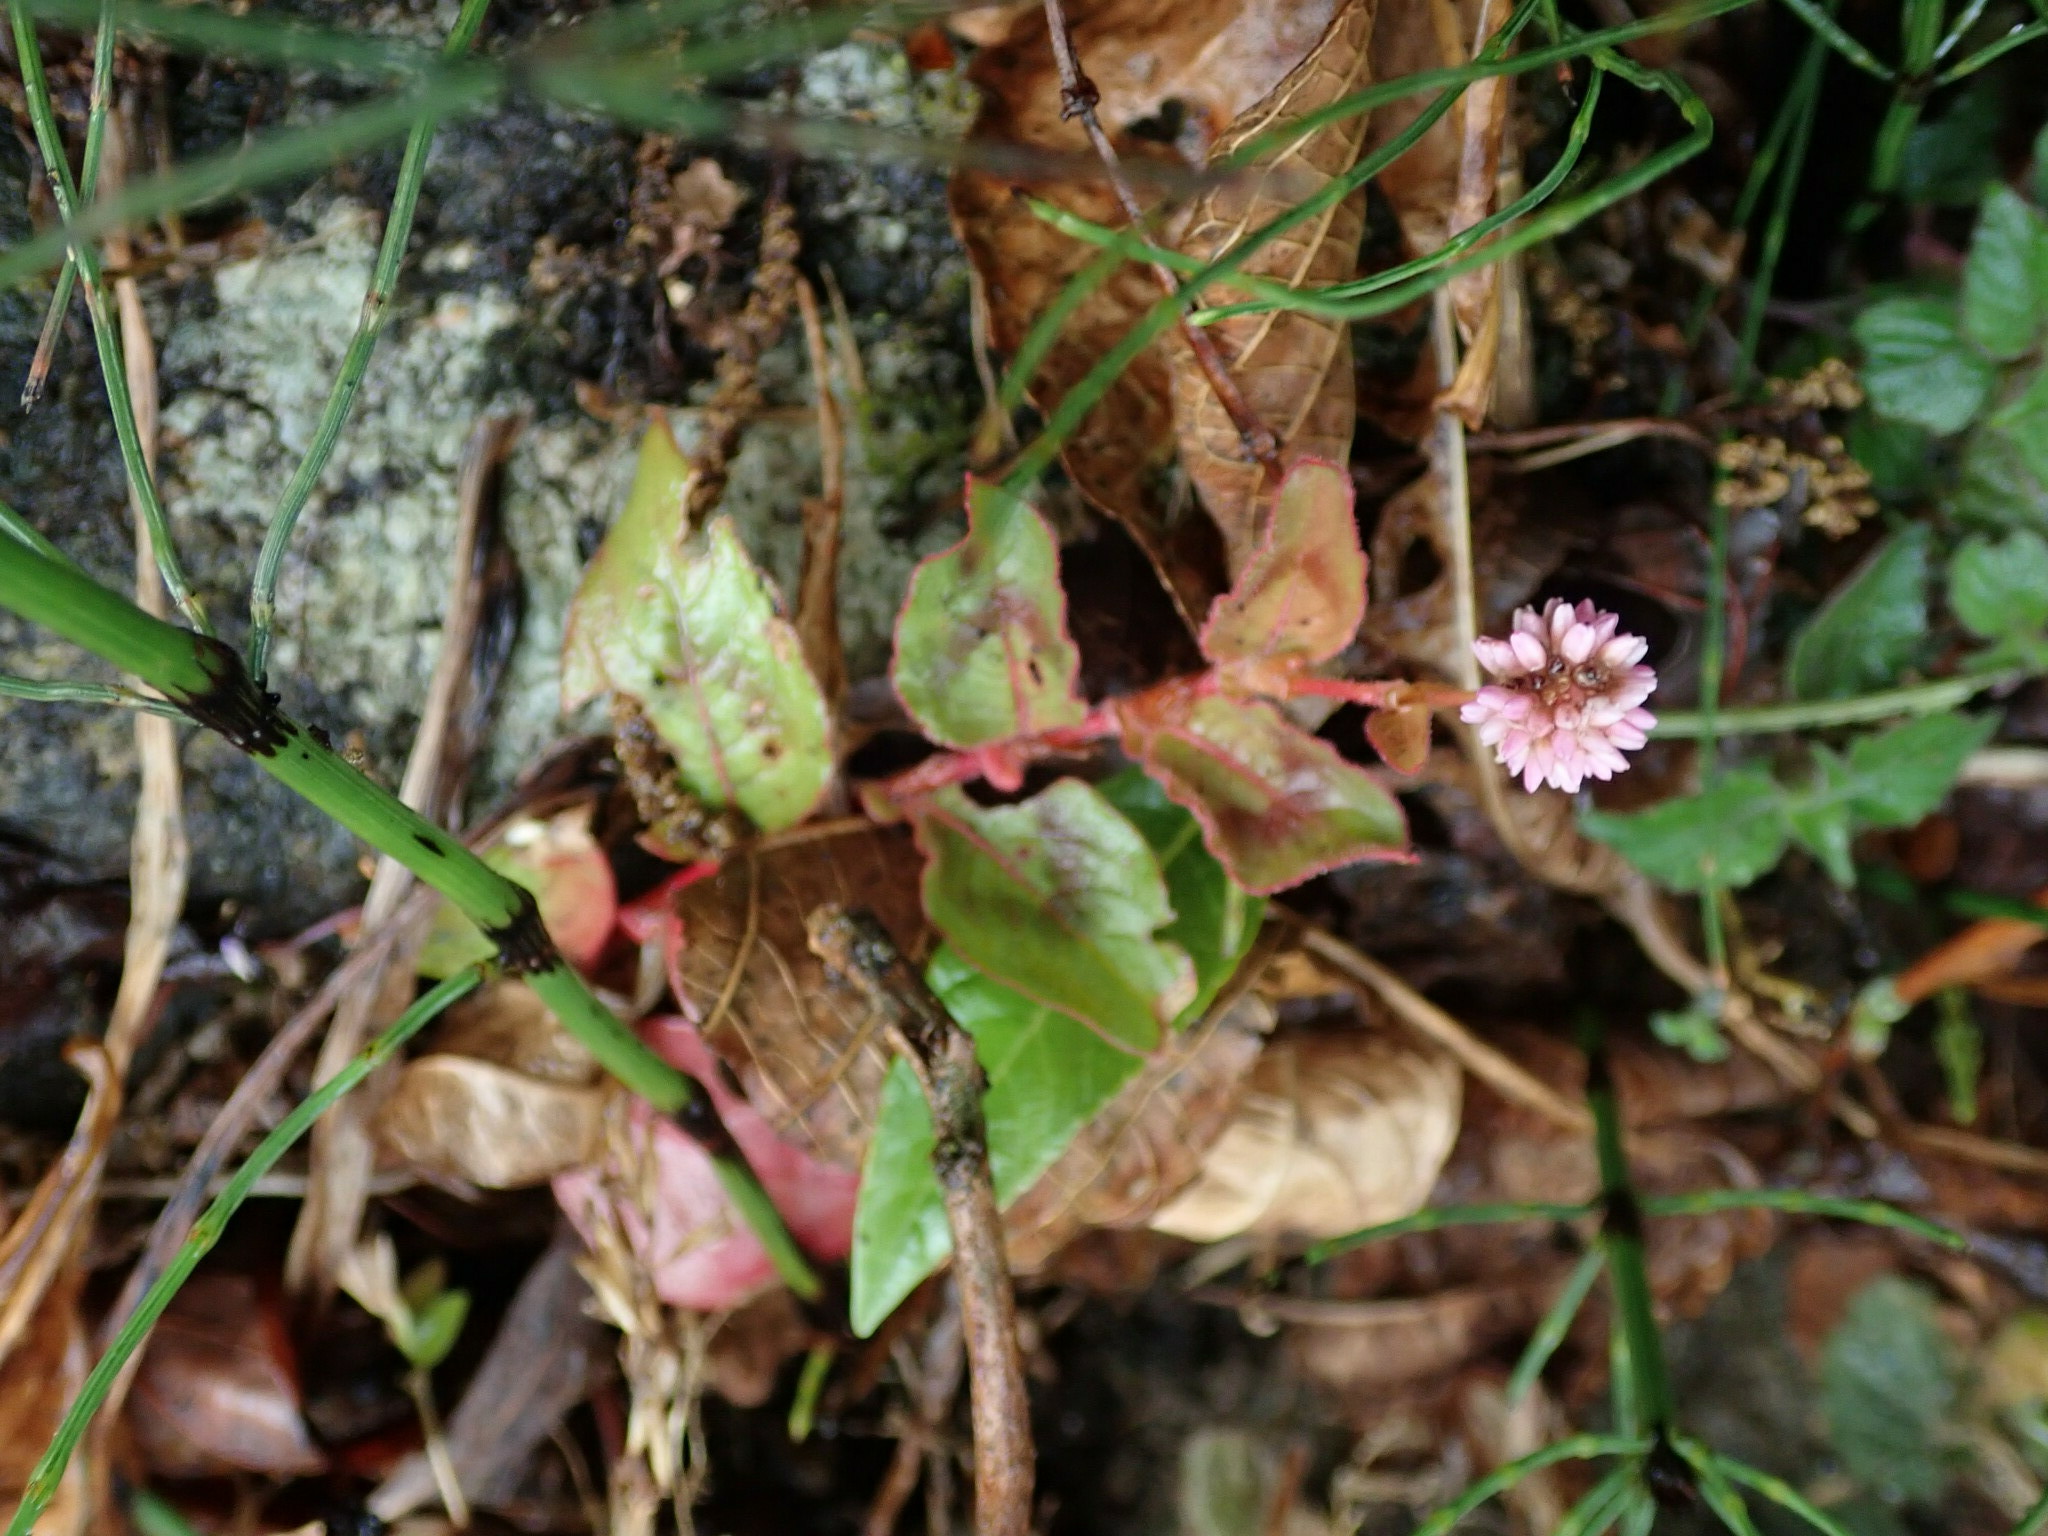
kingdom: Plantae
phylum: Tracheophyta
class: Magnoliopsida
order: Caryophyllales
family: Polygonaceae
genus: Persicaria
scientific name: Persicaria capitata
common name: Pinkhead smartweed
